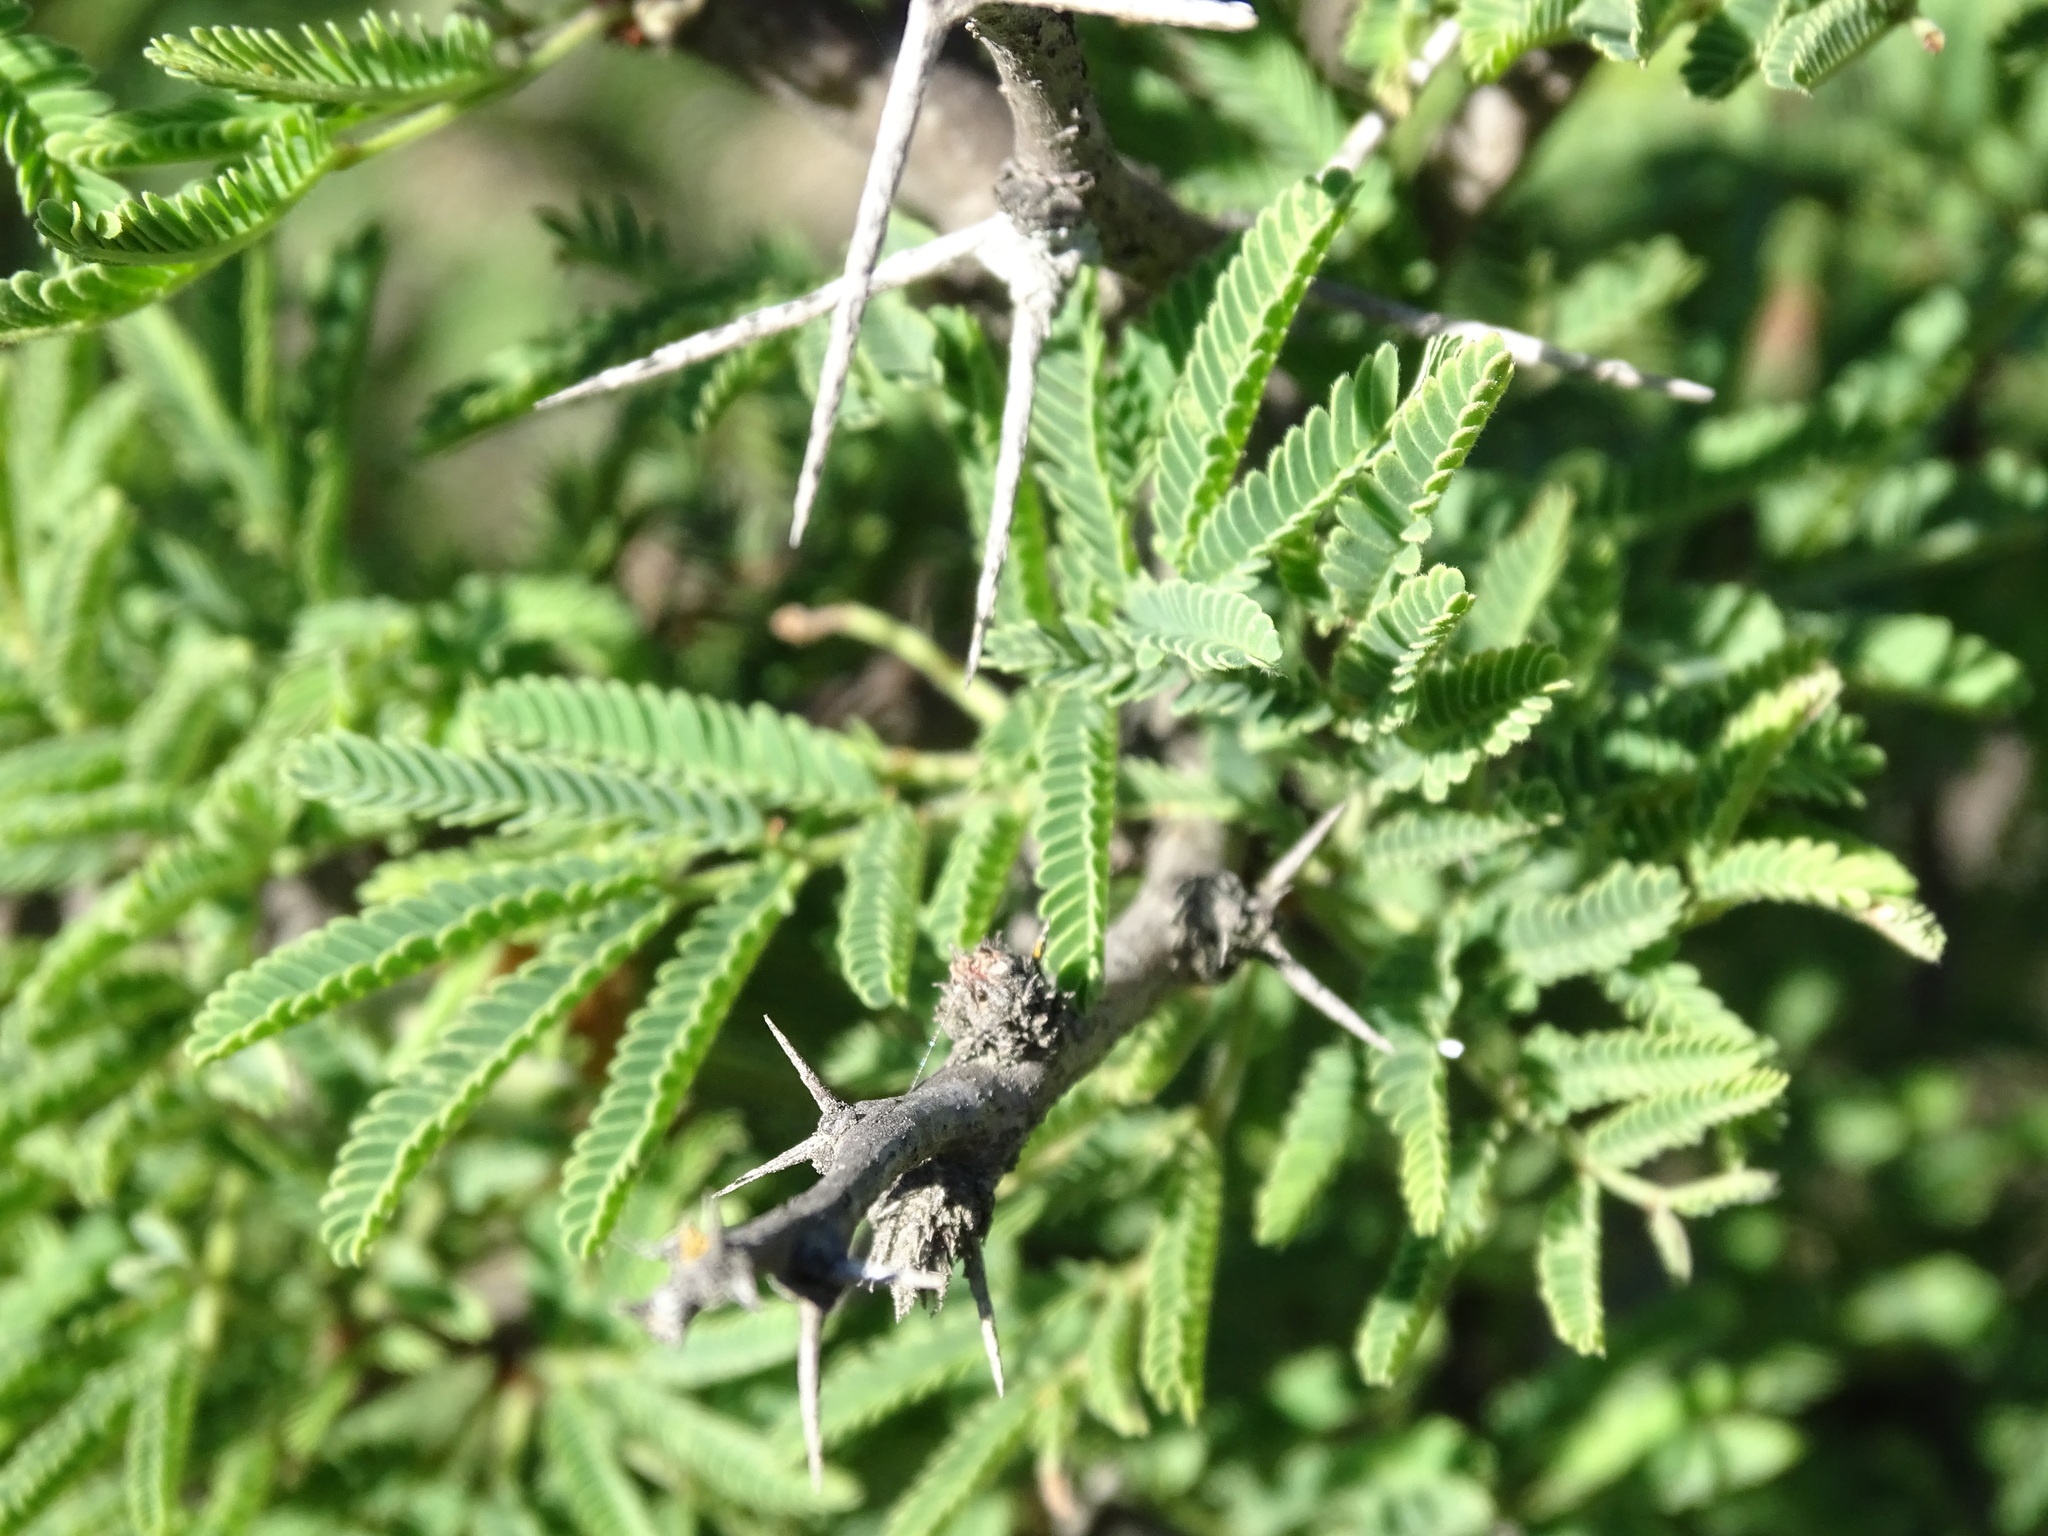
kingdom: Plantae
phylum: Tracheophyta
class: Magnoliopsida
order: Fabales
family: Fabaceae
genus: Vachellia
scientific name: Vachellia schaffneri
